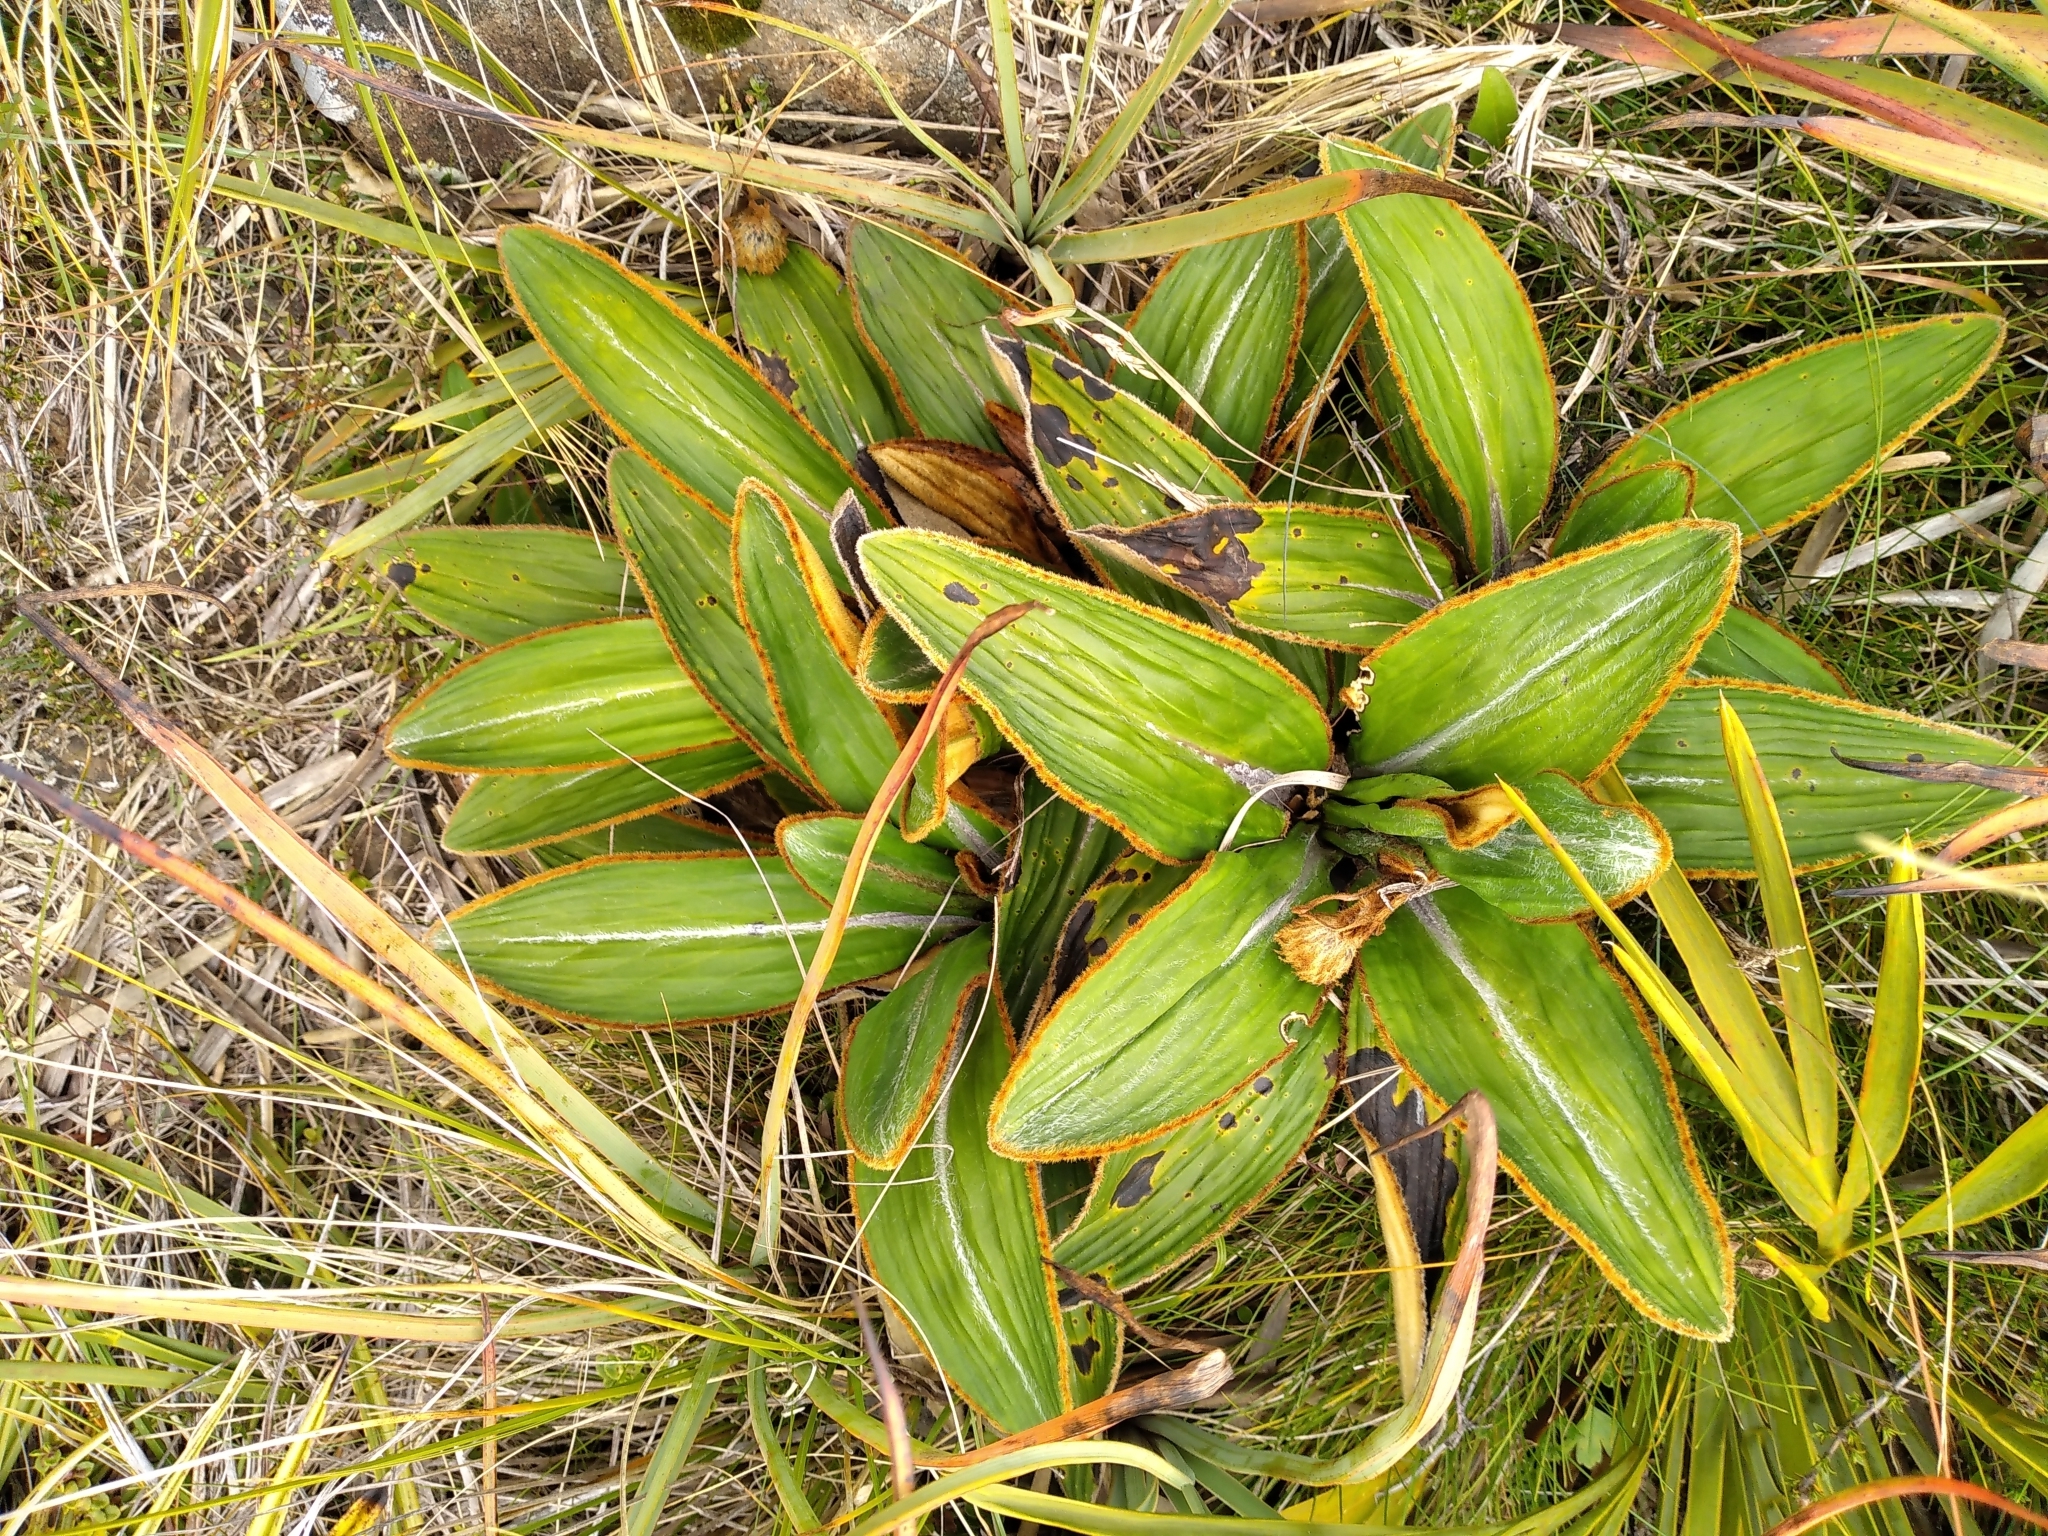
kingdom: Plantae
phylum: Tracheophyta
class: Magnoliopsida
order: Asterales
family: Asteraceae
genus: Celmisia
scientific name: Celmisia traversii
